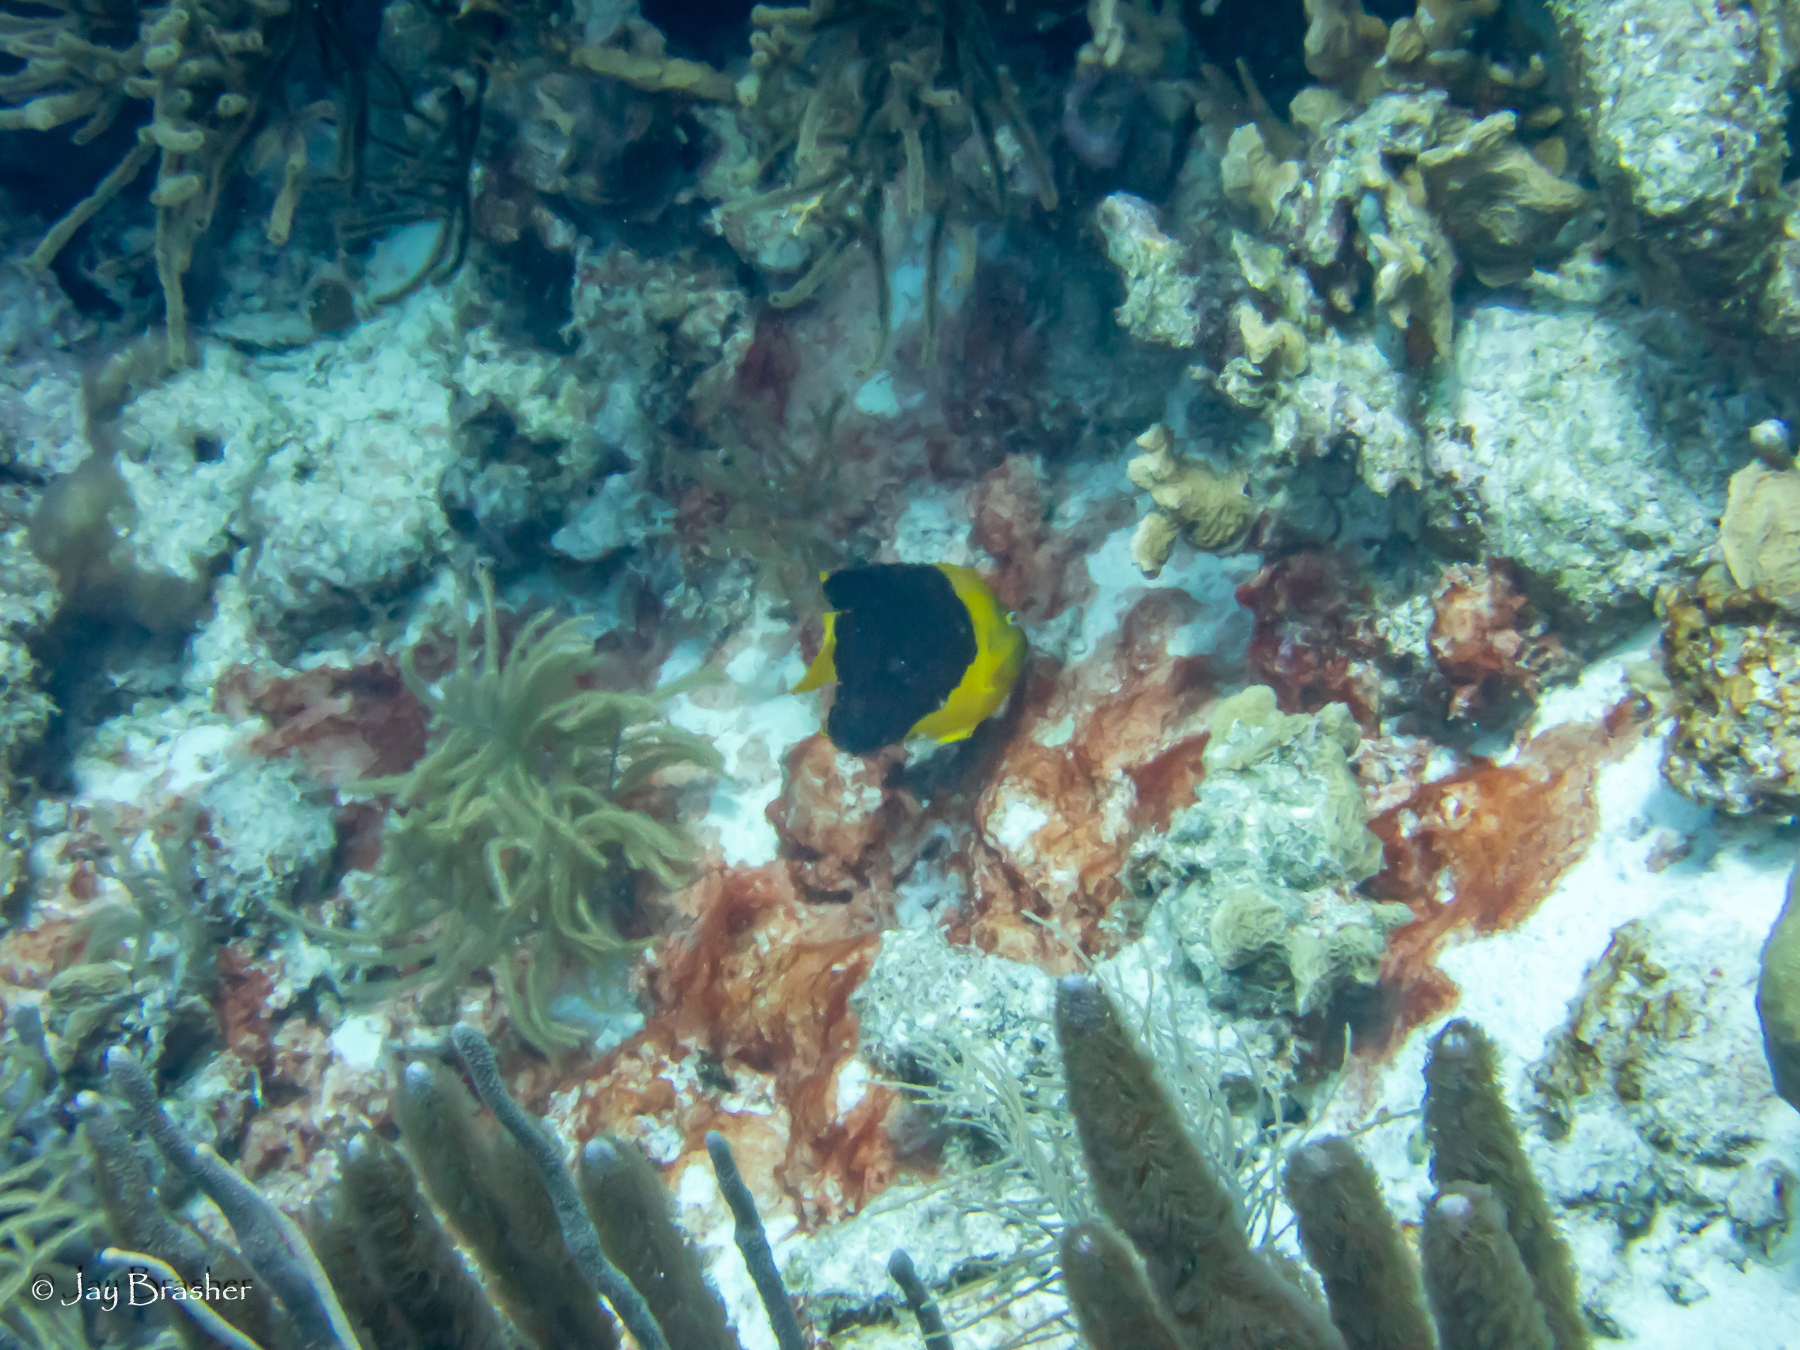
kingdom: Animalia
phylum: Chordata
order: Perciformes
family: Pomacanthidae
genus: Holacanthus
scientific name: Holacanthus tricolor
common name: Rock beauty
